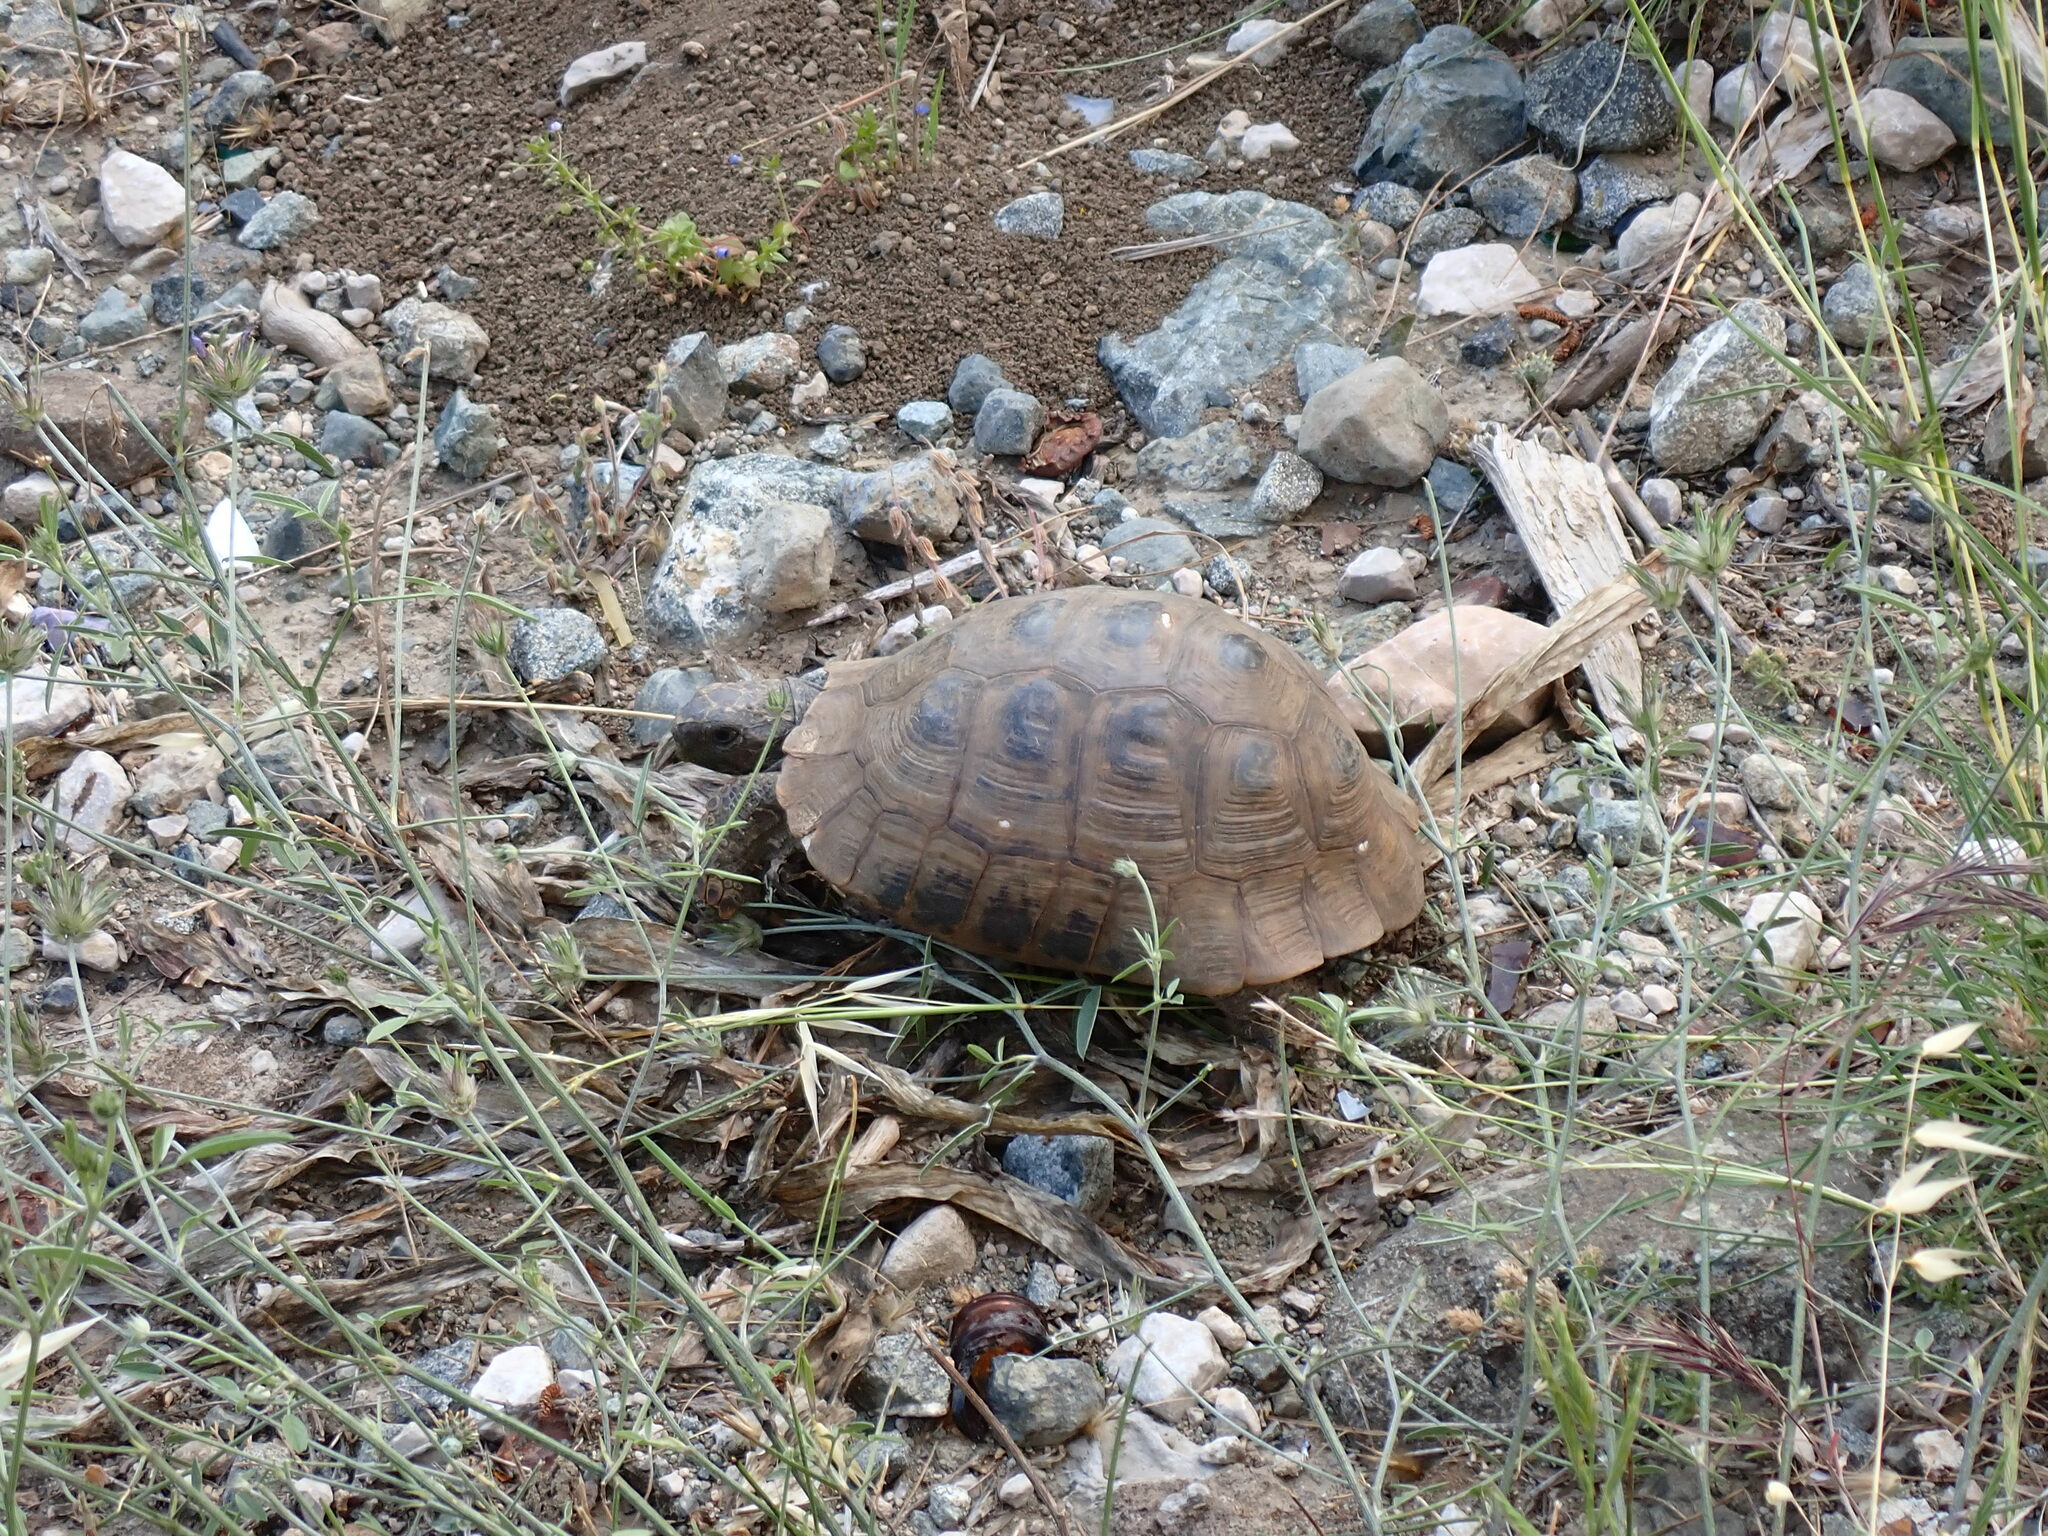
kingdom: Animalia
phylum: Chordata
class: Testudines
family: Testudinidae
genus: Testudo
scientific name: Testudo graeca
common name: Common tortoise
